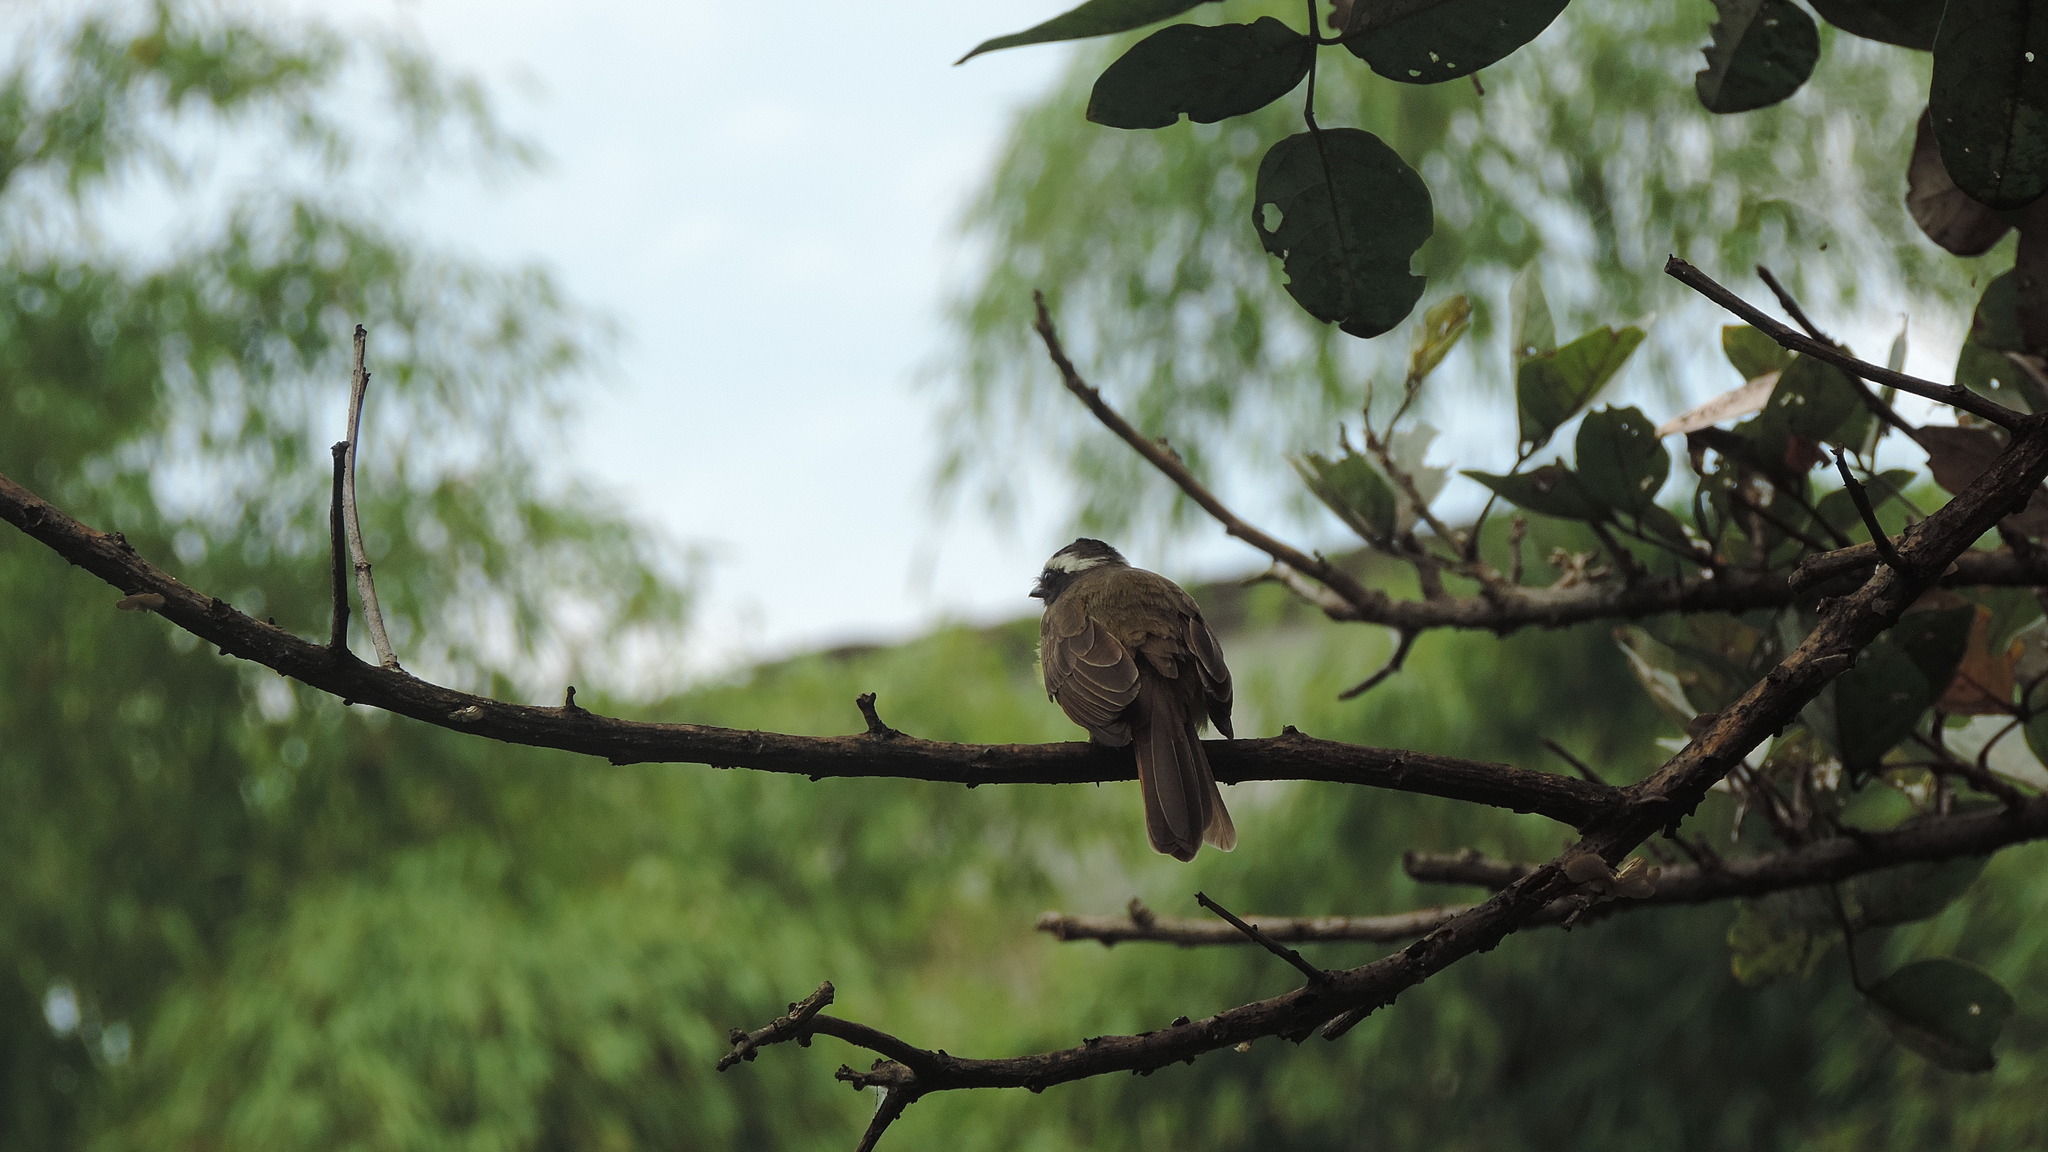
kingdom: Animalia
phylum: Chordata
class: Aves
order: Passeriformes
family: Tyrannidae
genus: Myiozetetes
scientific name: Myiozetetes cayanensis
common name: Rusty-margined flycatcher
